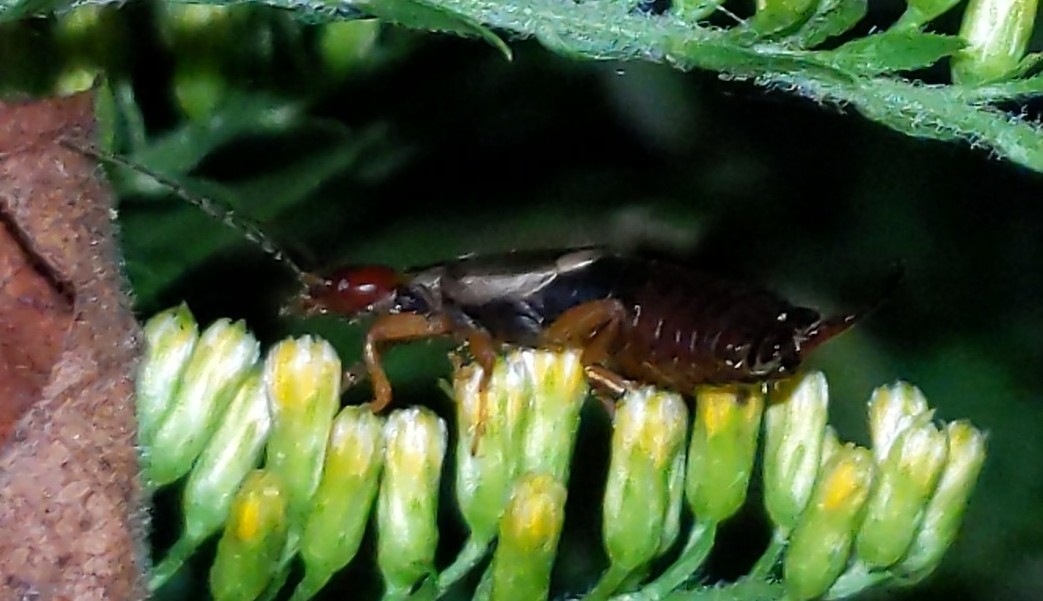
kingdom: Animalia
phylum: Arthropoda
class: Insecta
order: Dermaptera
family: Forficulidae
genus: Forficula
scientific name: Forficula
